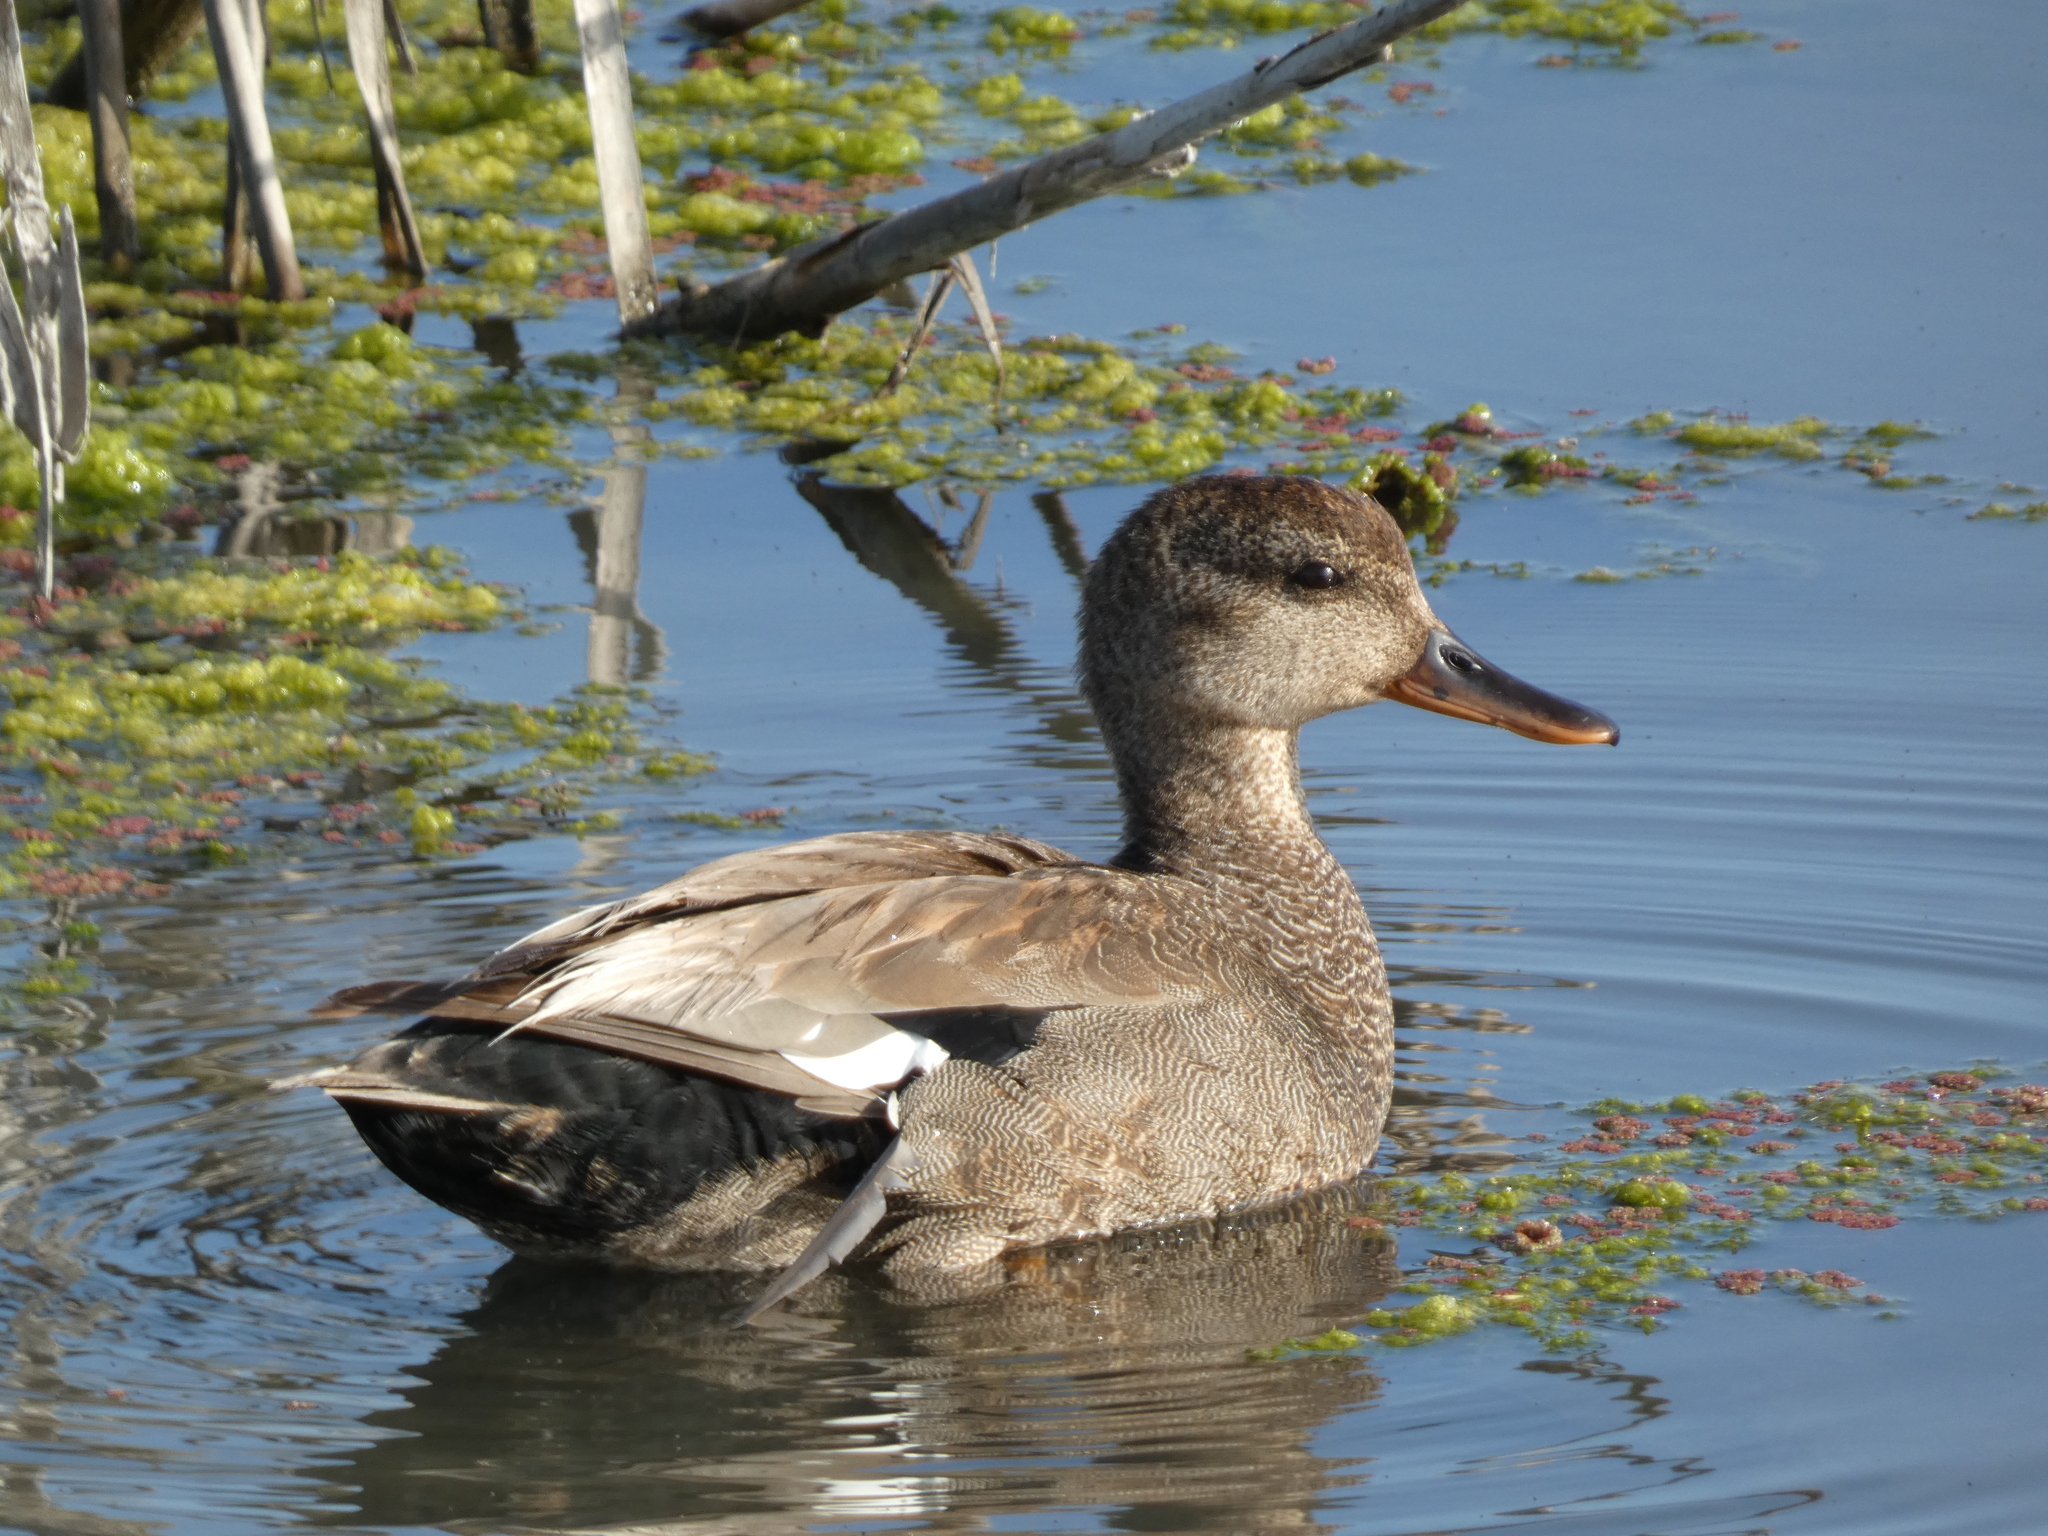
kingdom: Animalia
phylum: Chordata
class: Aves
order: Anseriformes
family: Anatidae
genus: Mareca
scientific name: Mareca strepera
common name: Gadwall
